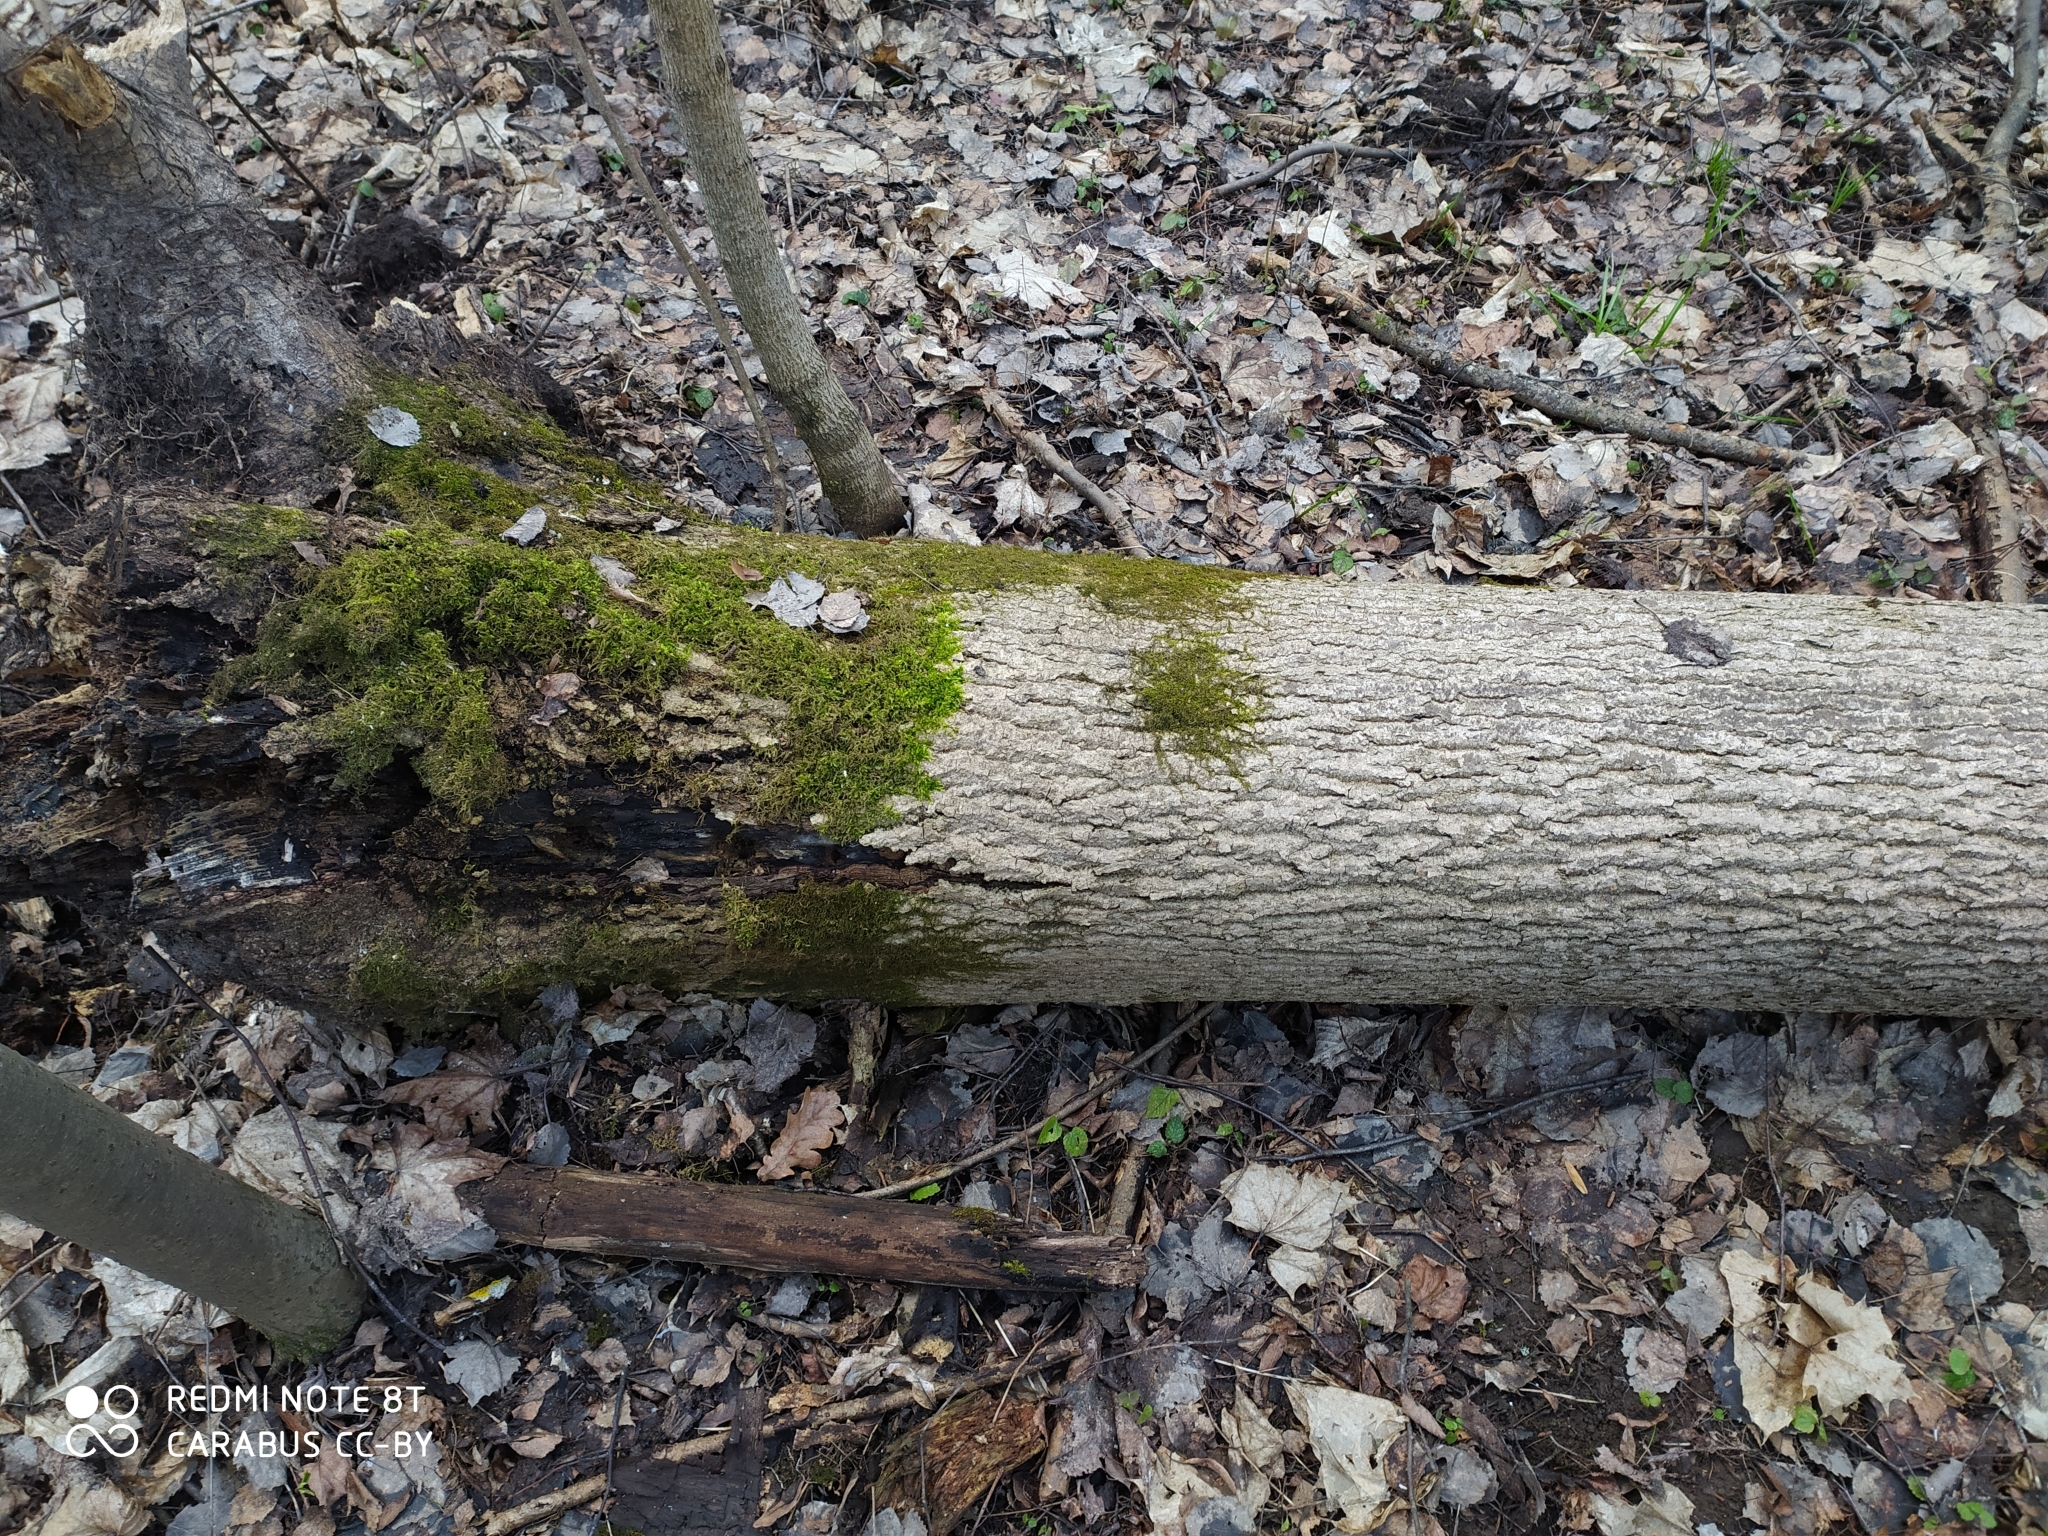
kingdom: Plantae
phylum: Tracheophyta
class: Magnoliopsida
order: Sapindales
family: Sapindaceae
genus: Acer
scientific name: Acer platanoides
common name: Norway maple
